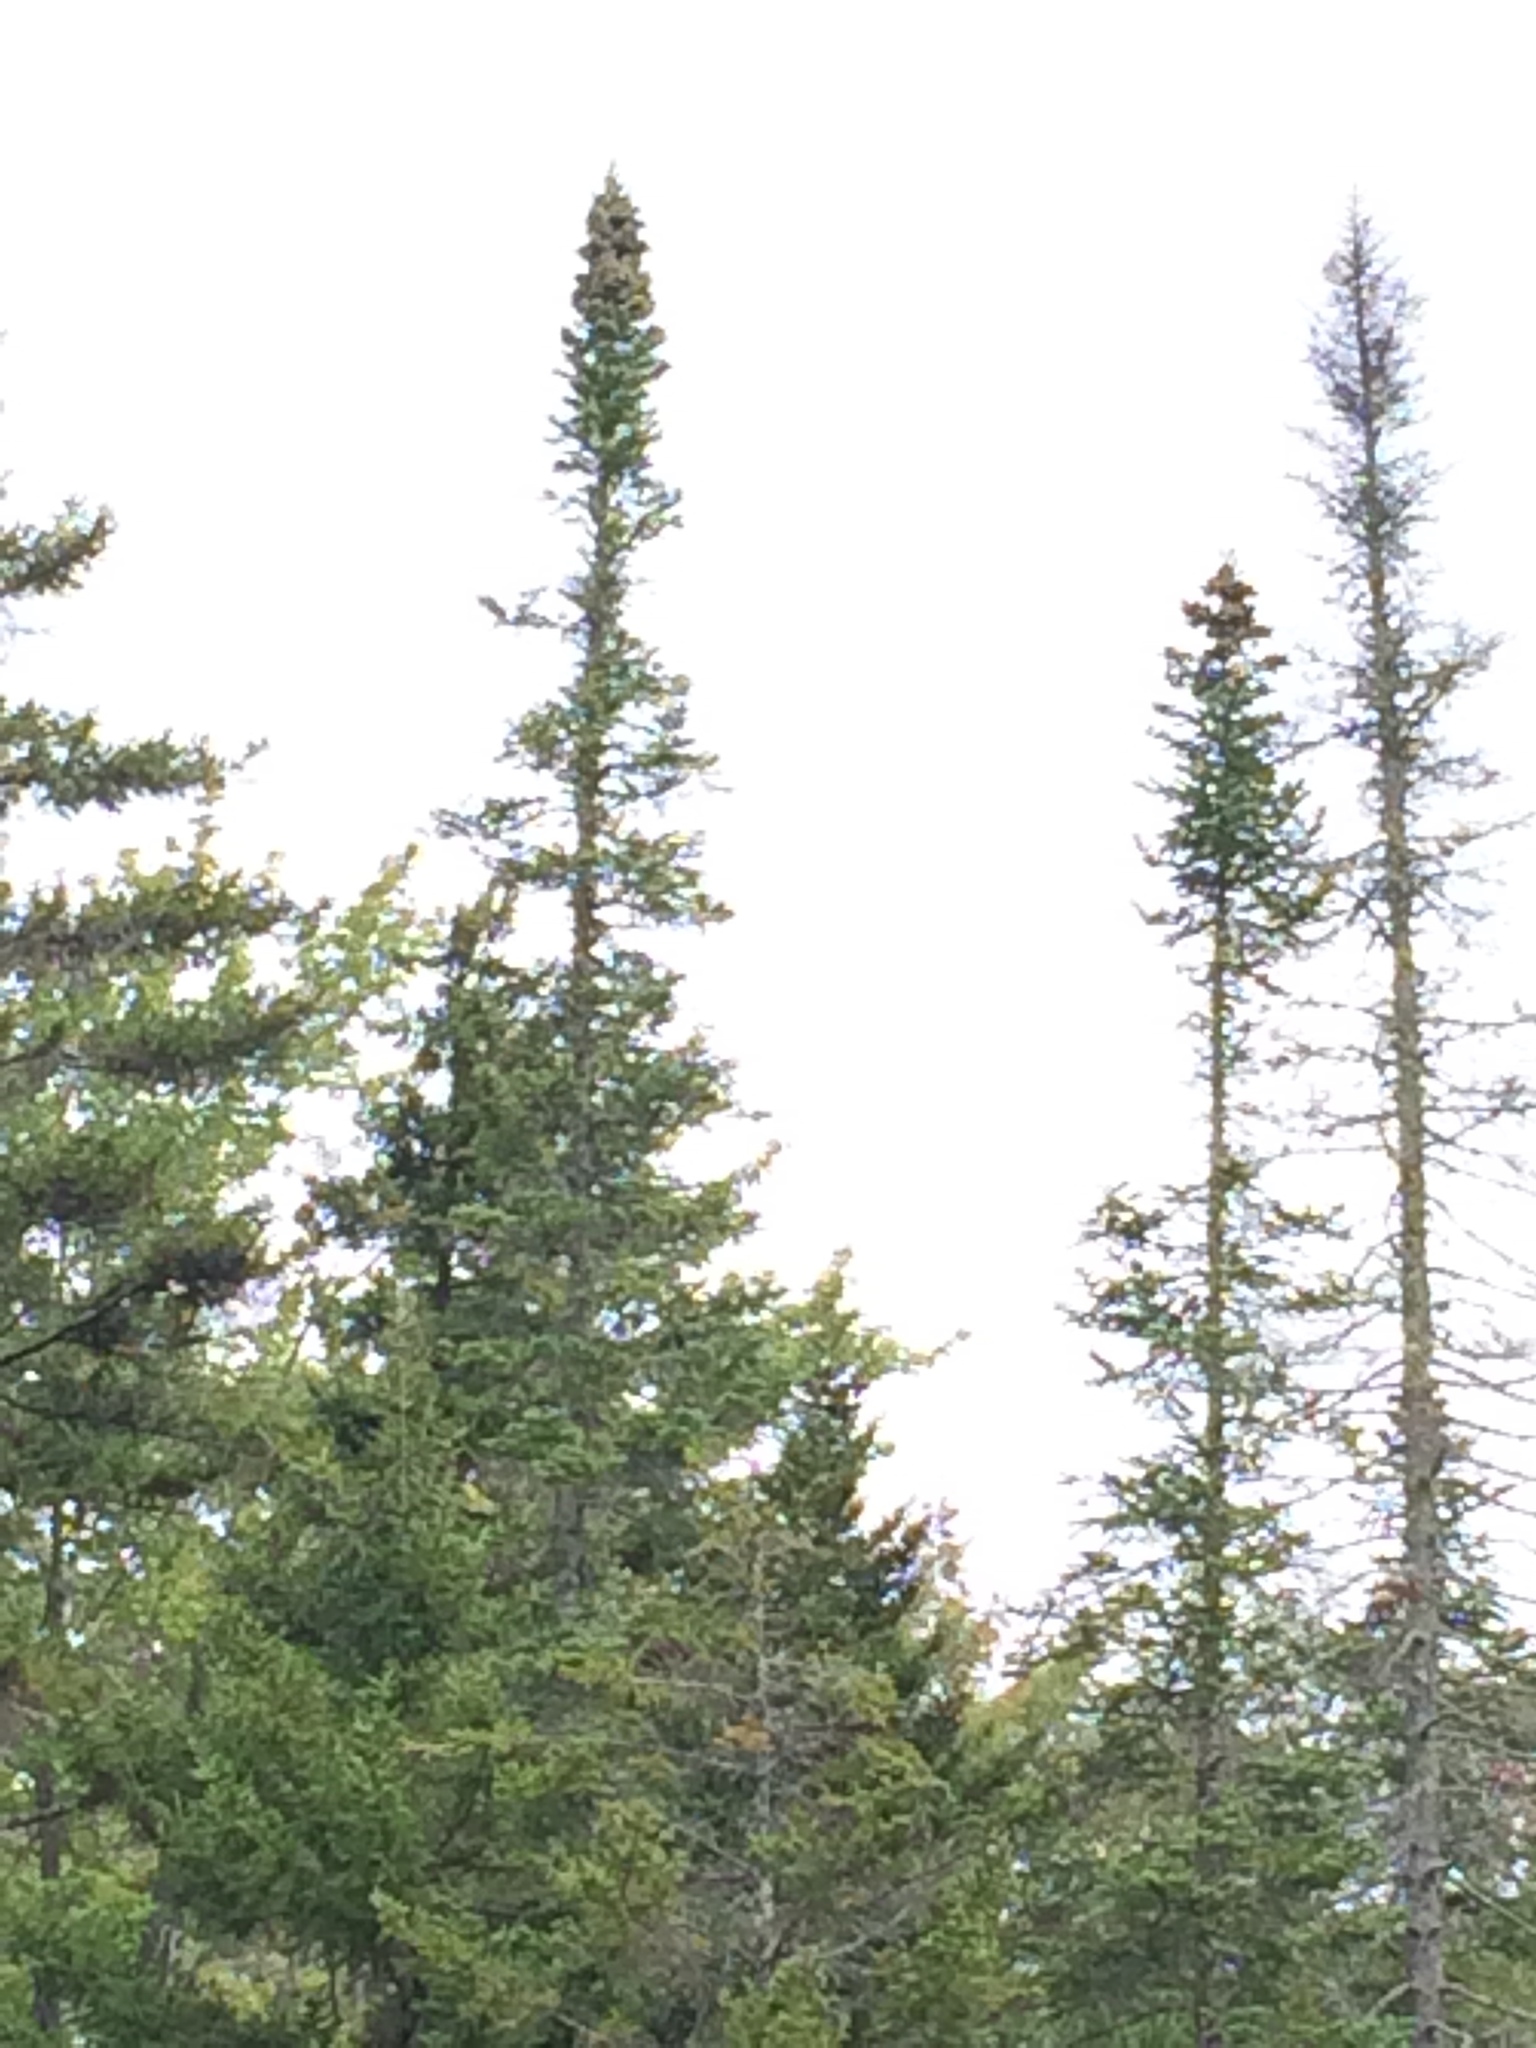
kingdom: Plantae
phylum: Tracheophyta
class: Pinopsida
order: Pinales
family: Pinaceae
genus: Abies
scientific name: Abies balsamea
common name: Balsam fir
